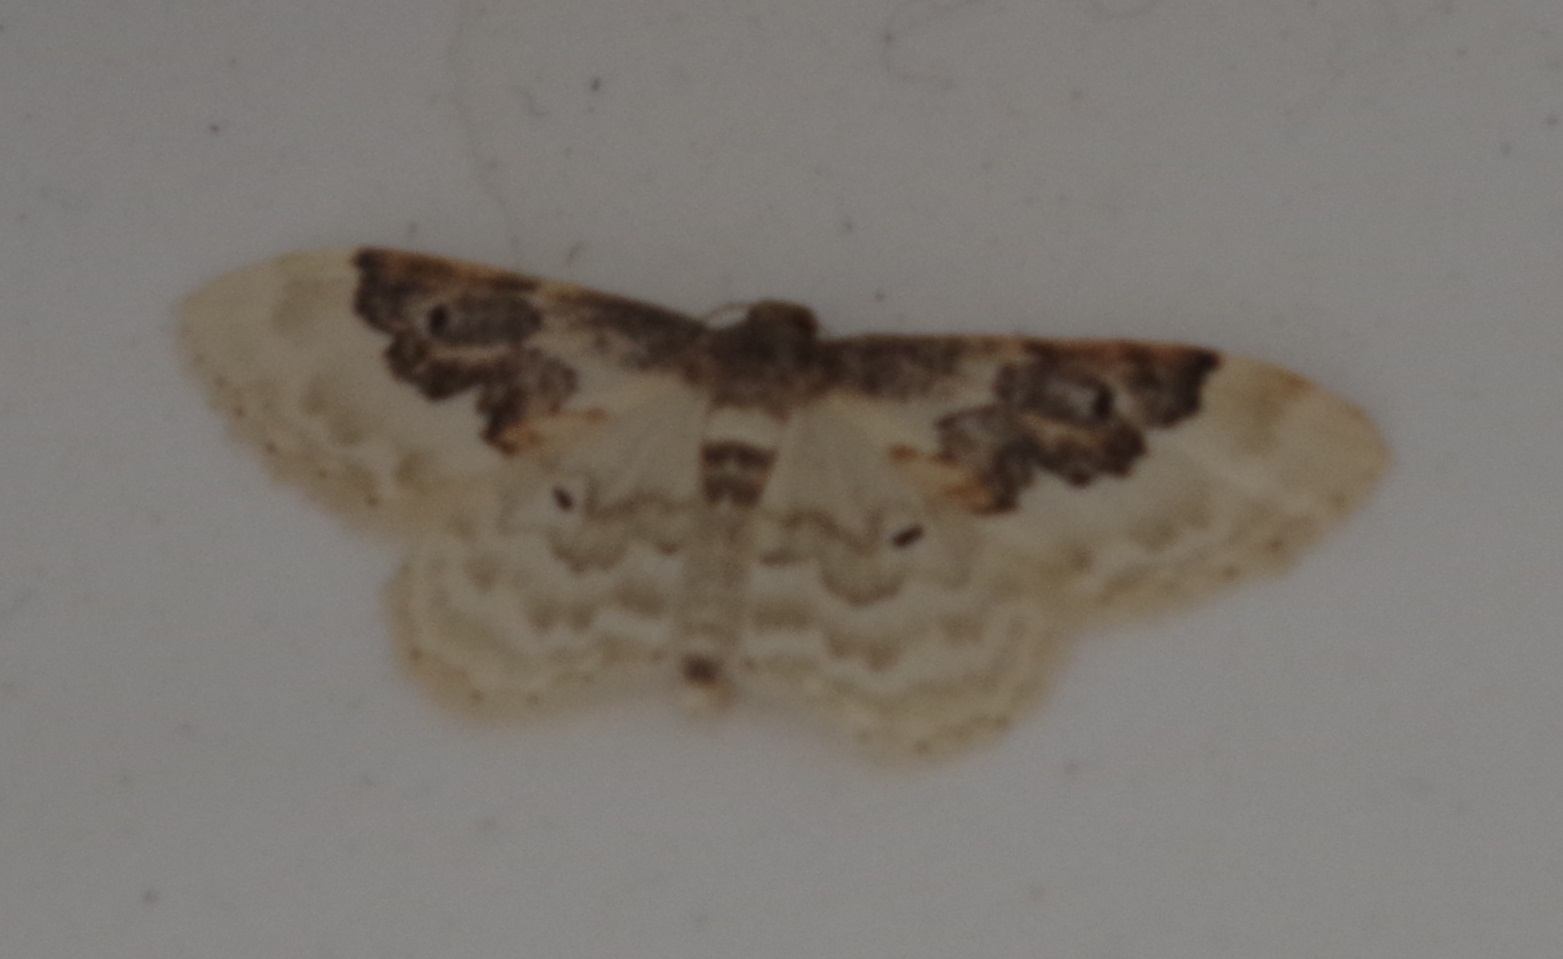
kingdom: Animalia
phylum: Arthropoda
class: Insecta
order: Lepidoptera
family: Geometridae
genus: Idaea
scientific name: Idaea rusticata
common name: Least carpet
